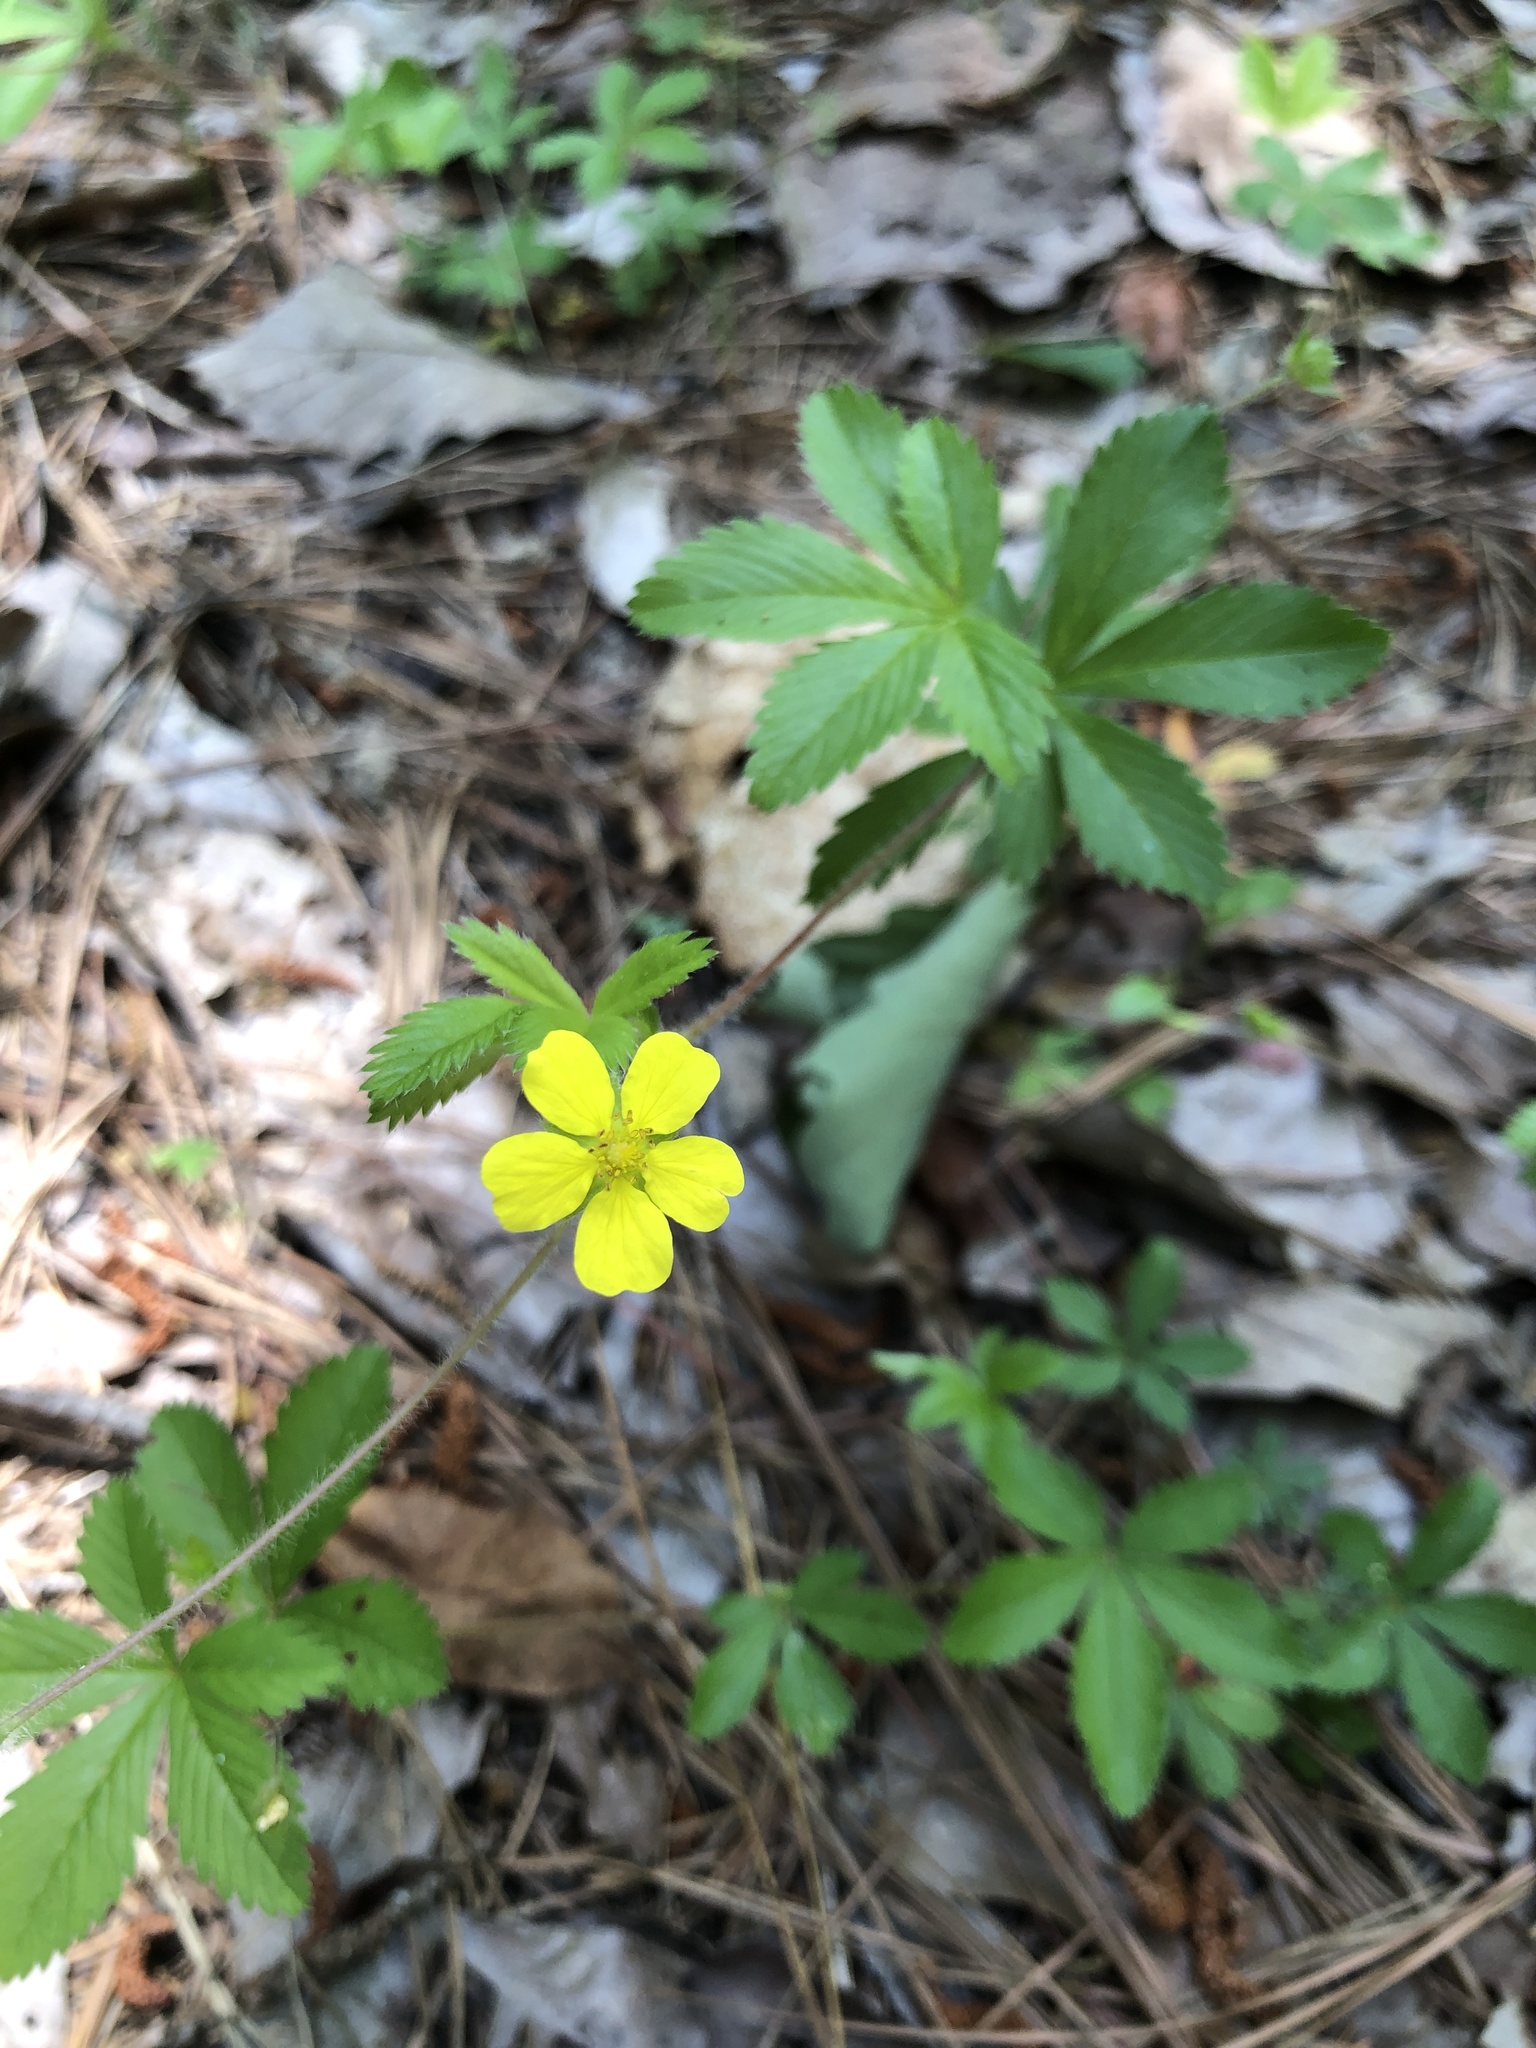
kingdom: Plantae
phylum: Tracheophyta
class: Magnoliopsida
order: Rosales
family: Rosaceae
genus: Potentilla
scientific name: Potentilla simplex
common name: Old field cinquefoil
